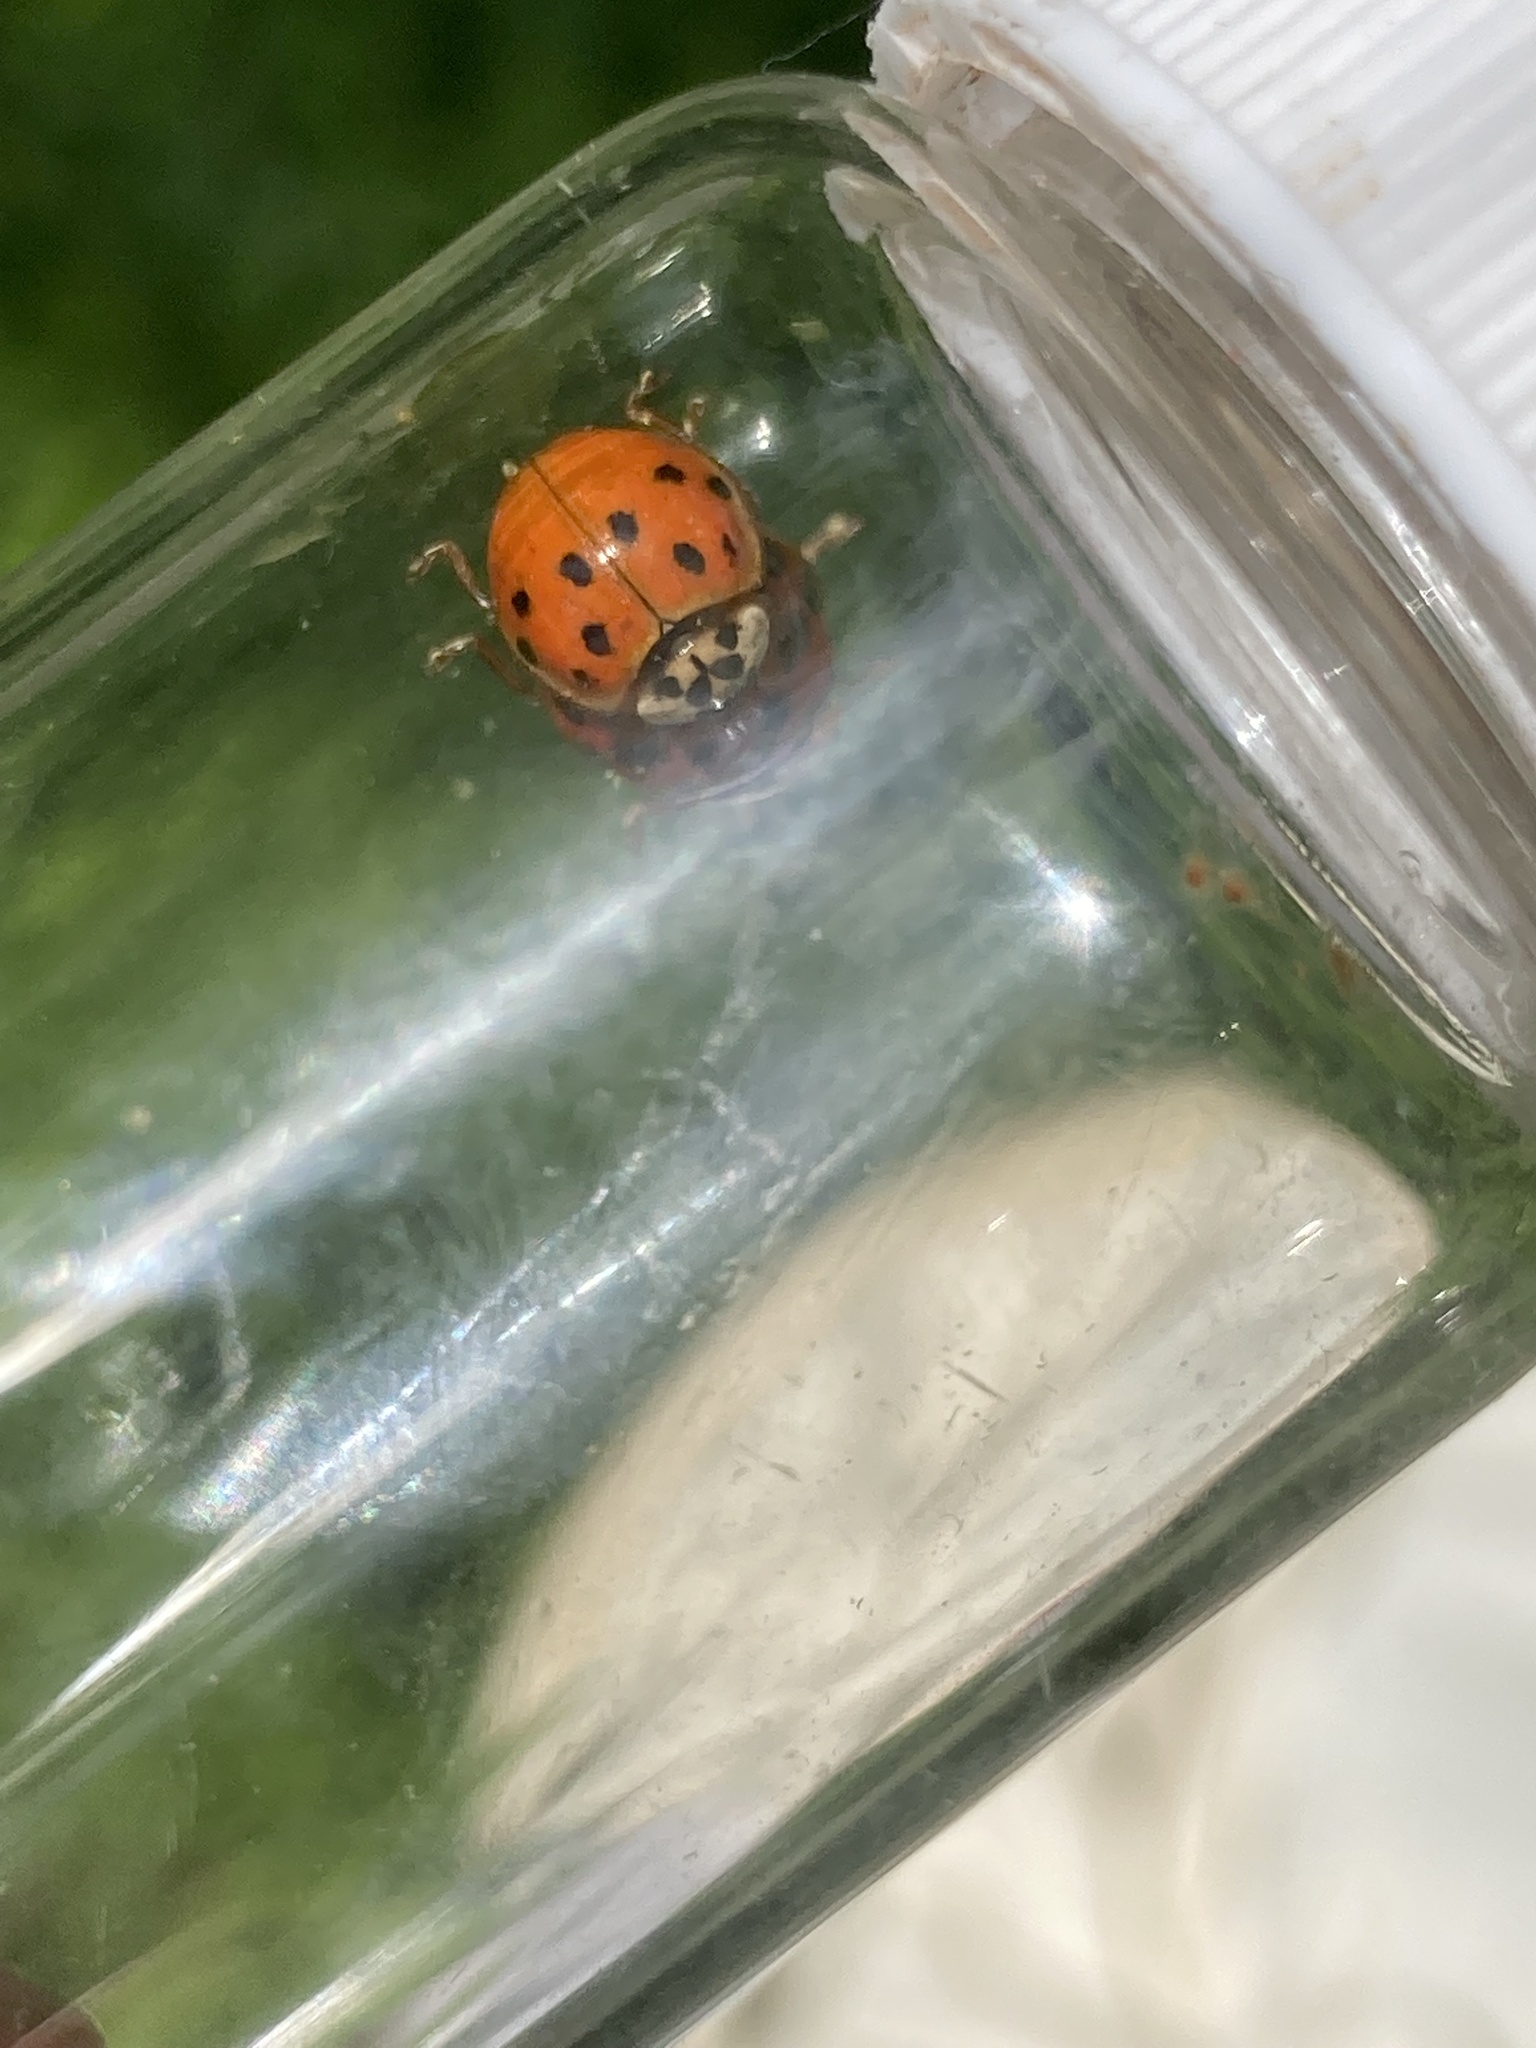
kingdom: Animalia
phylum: Arthropoda
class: Insecta
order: Coleoptera
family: Coccinellidae
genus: Harmonia
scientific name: Harmonia axyridis
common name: Harlequin ladybird
